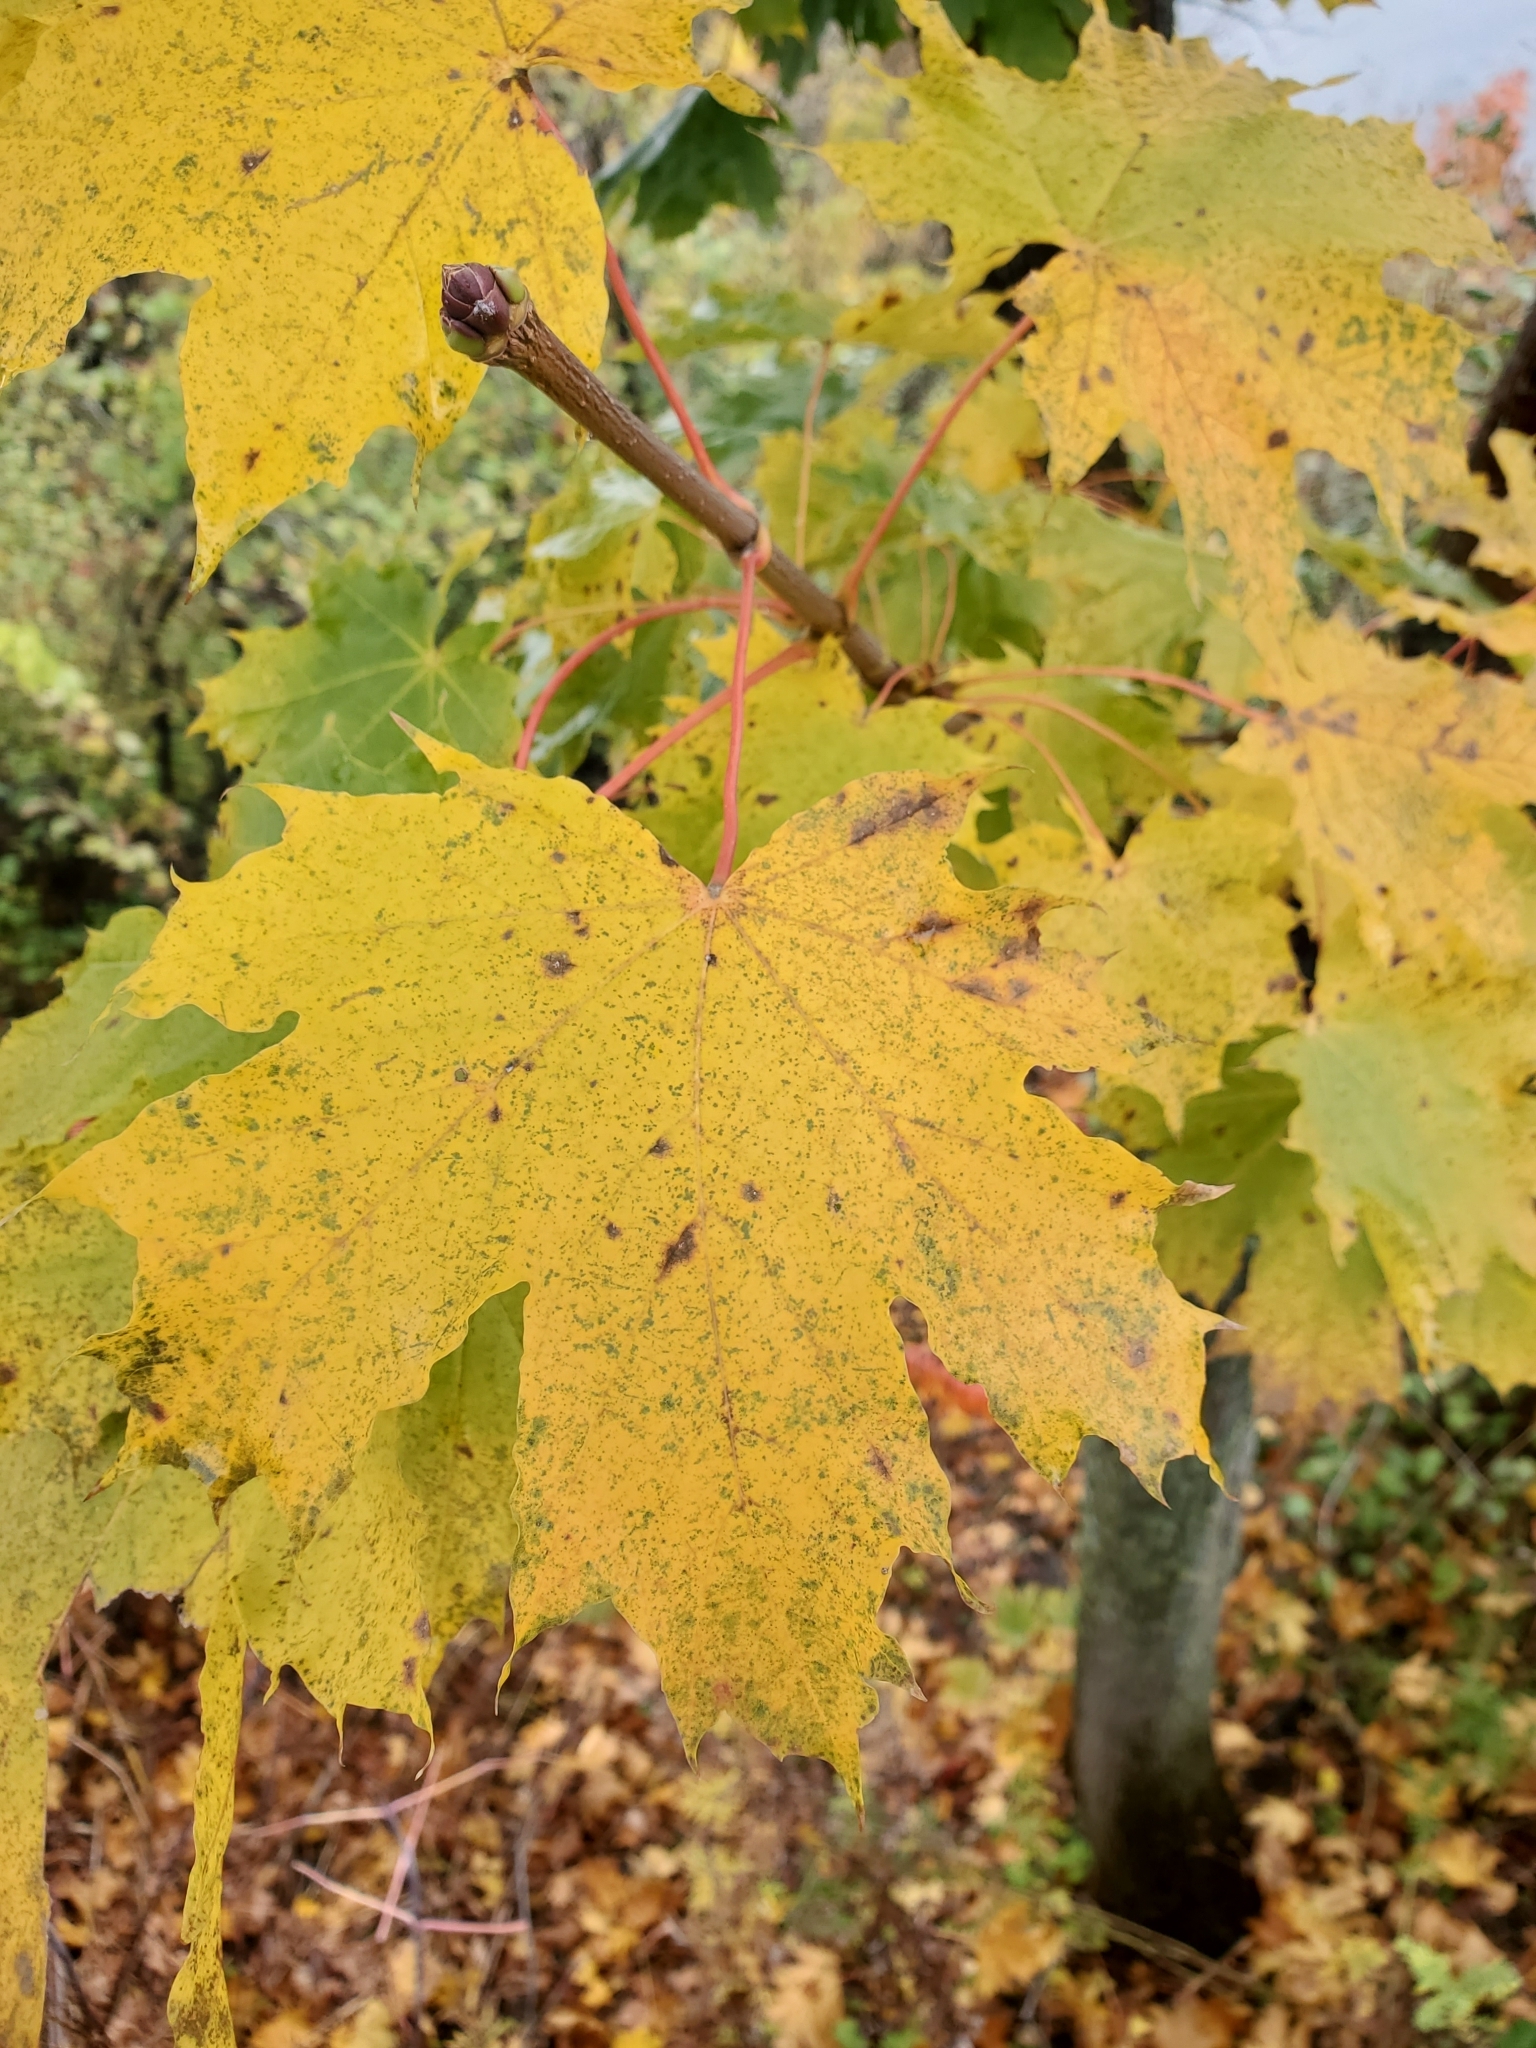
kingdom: Plantae
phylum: Tracheophyta
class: Magnoliopsida
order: Sapindales
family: Sapindaceae
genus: Acer
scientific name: Acer saccharum
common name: Sugar maple
